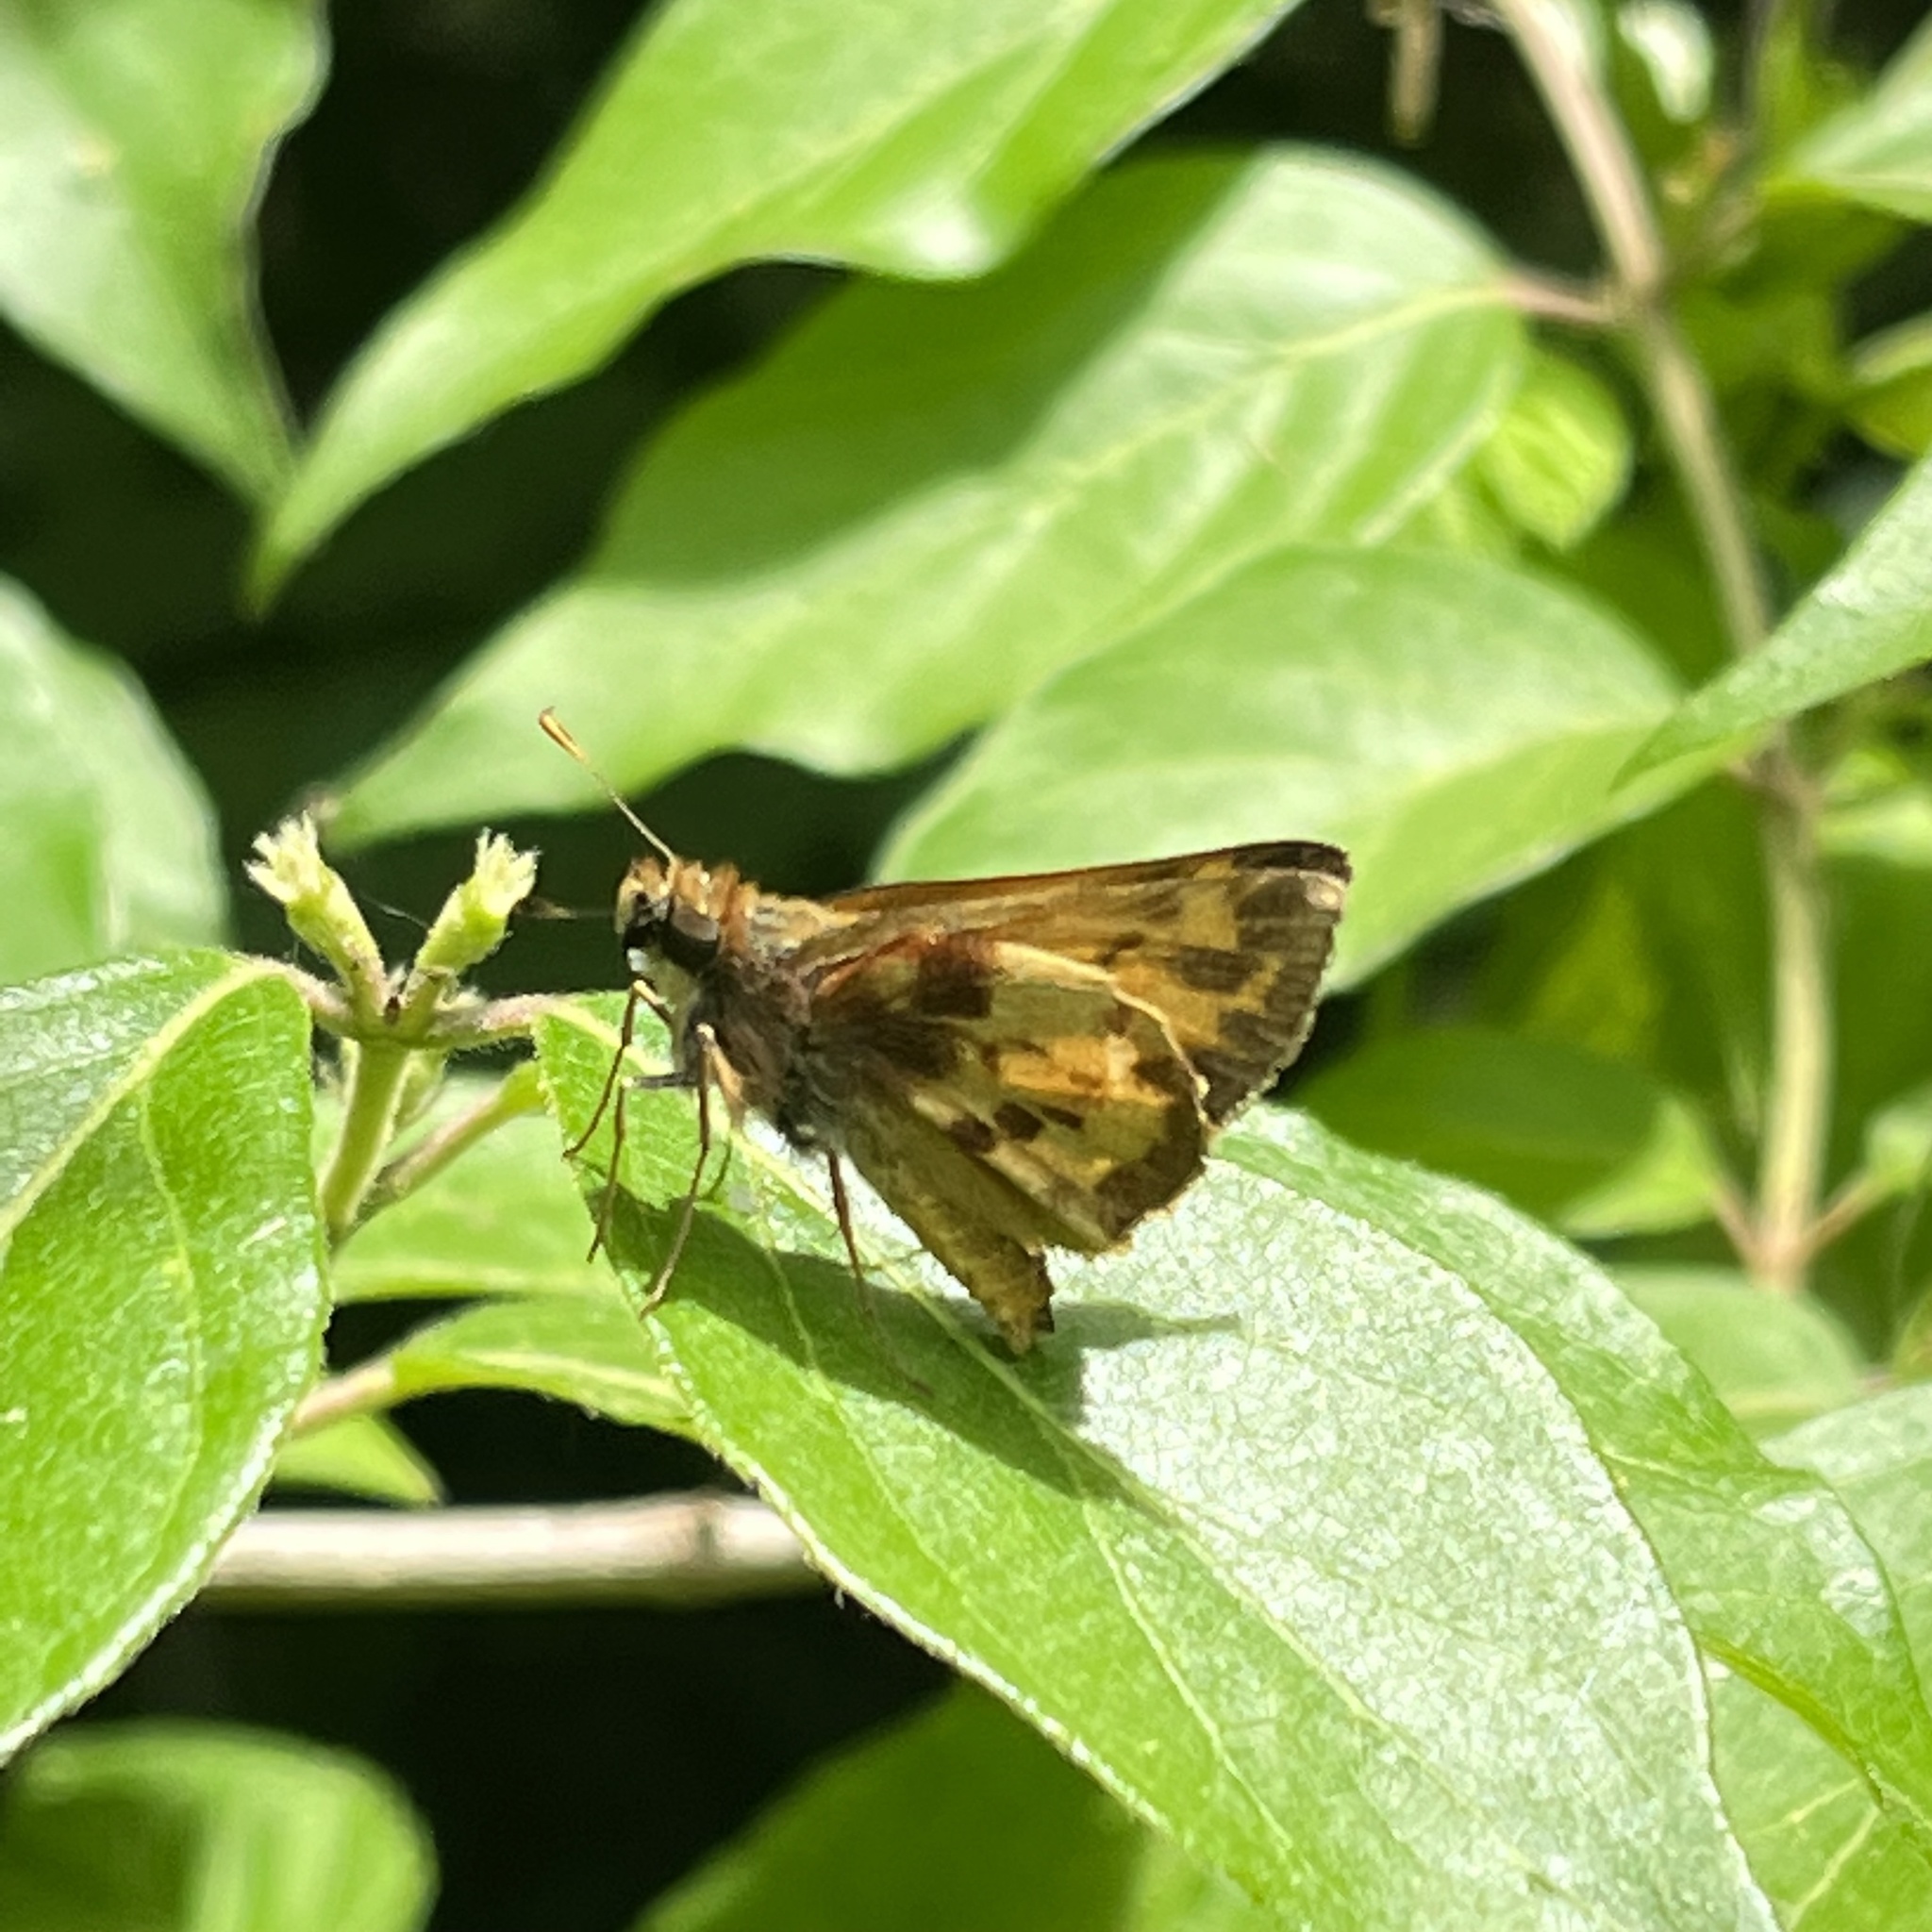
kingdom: Animalia
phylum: Arthropoda
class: Insecta
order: Lepidoptera
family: Hesperiidae
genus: Lon
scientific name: Lon zabulon
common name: Zabulon skipper
